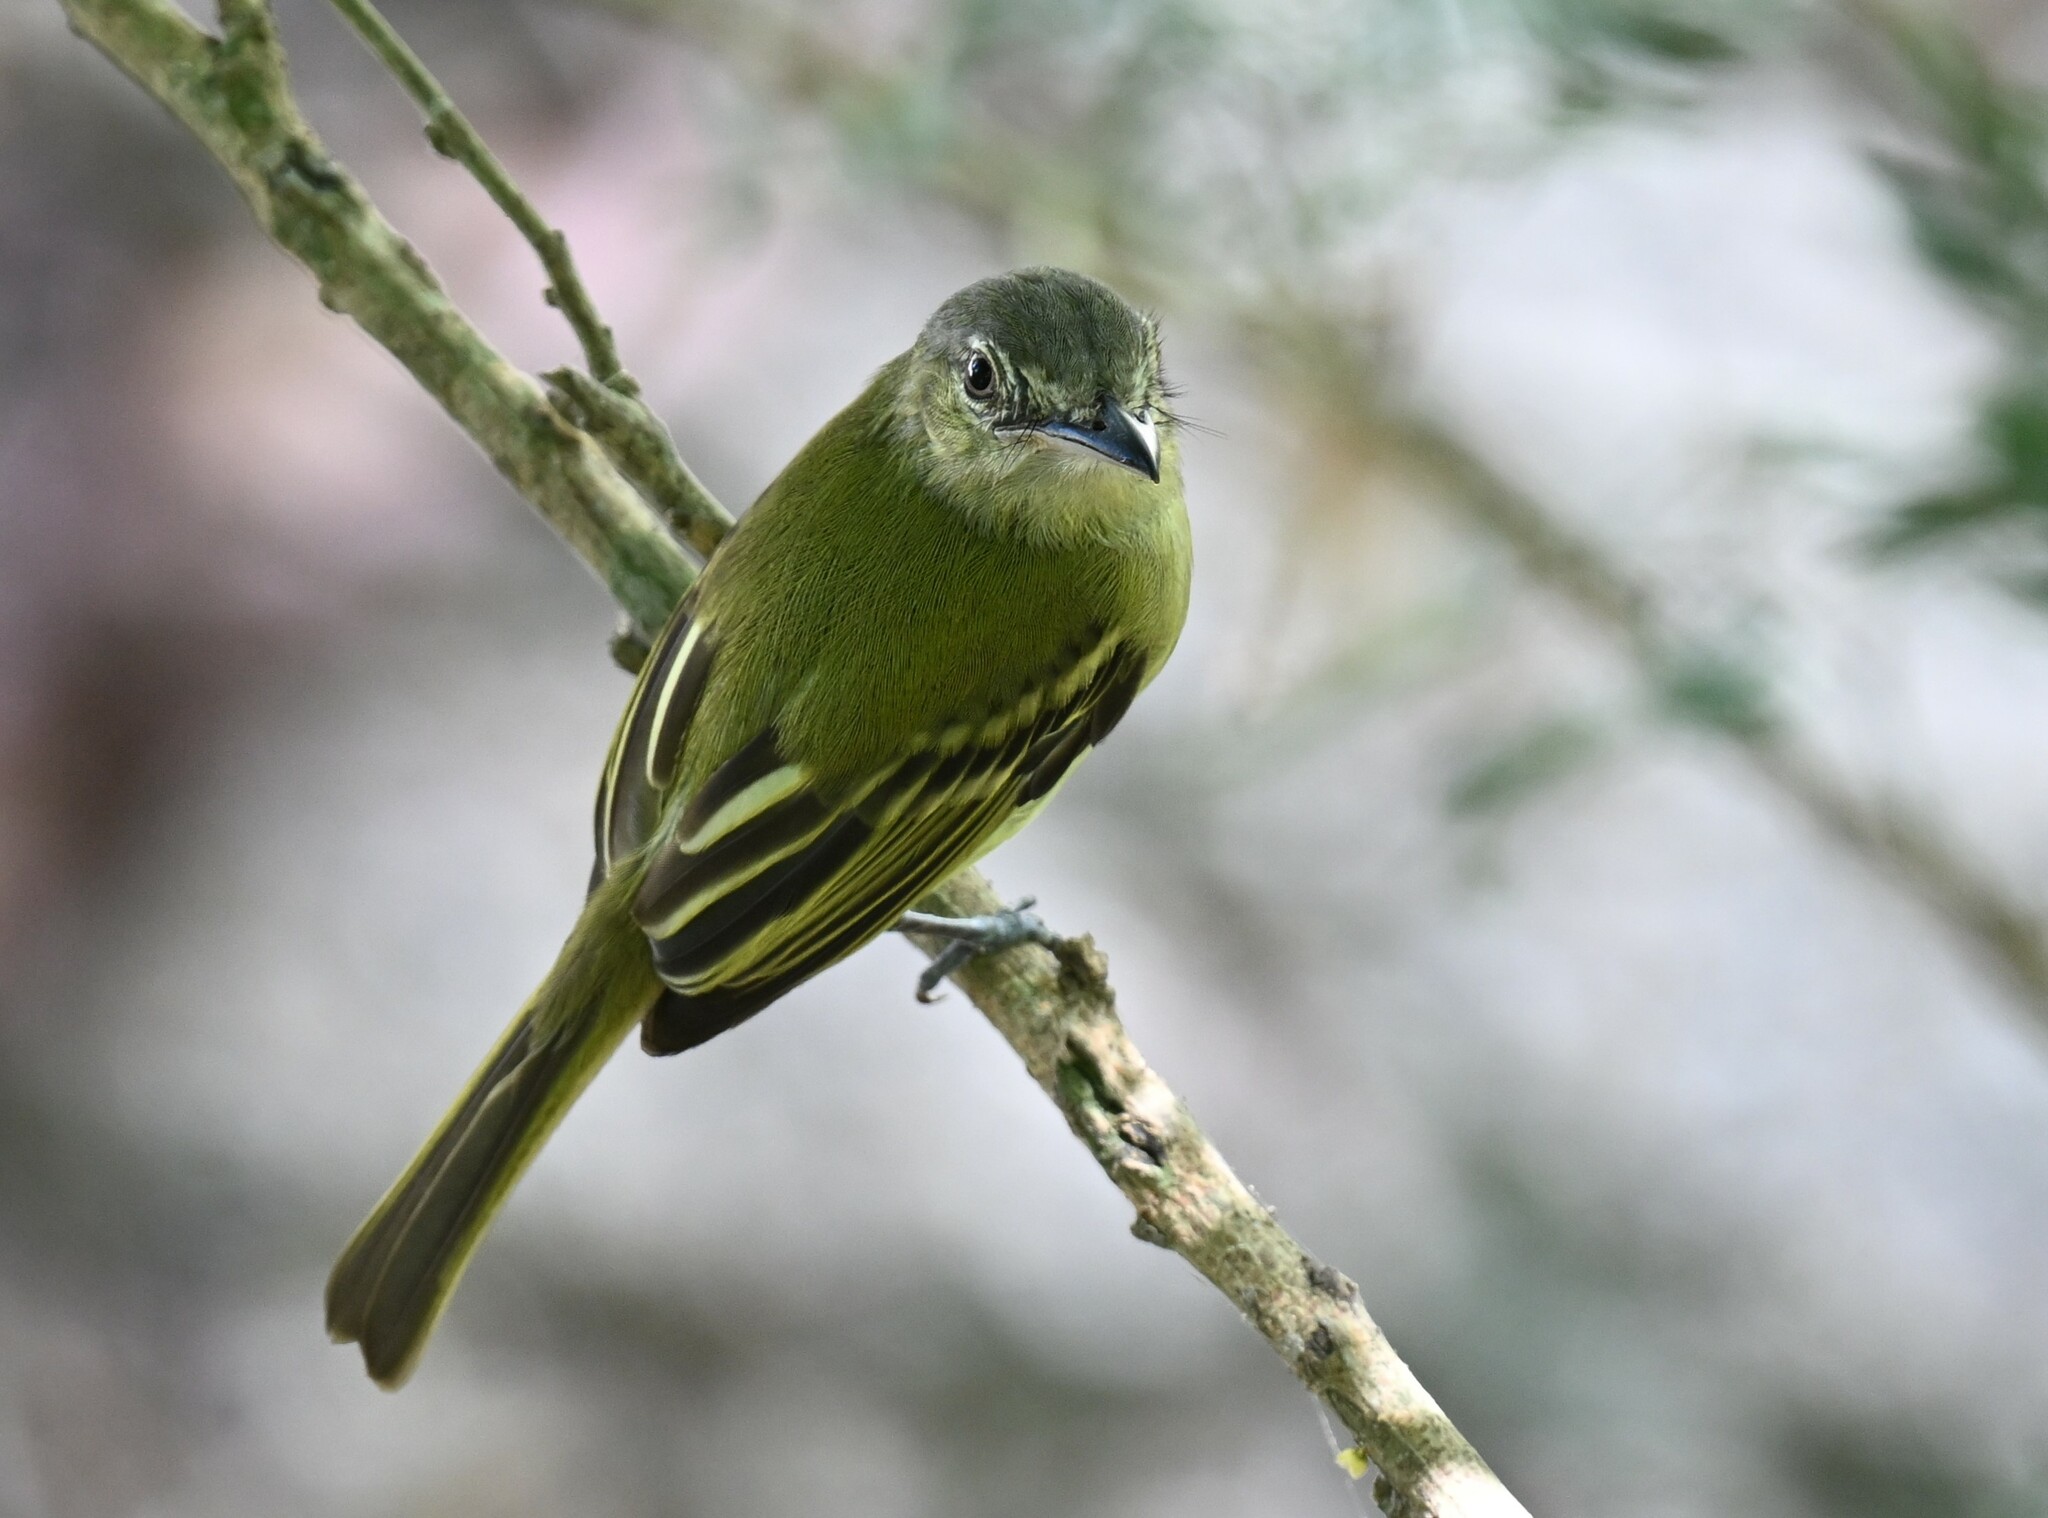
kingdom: Animalia
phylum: Chordata
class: Aves
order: Passeriformes
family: Tyrannidae
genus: Tolmomyias
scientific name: Tolmomyias sulphurescens
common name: Yellow-olive flycatcher
